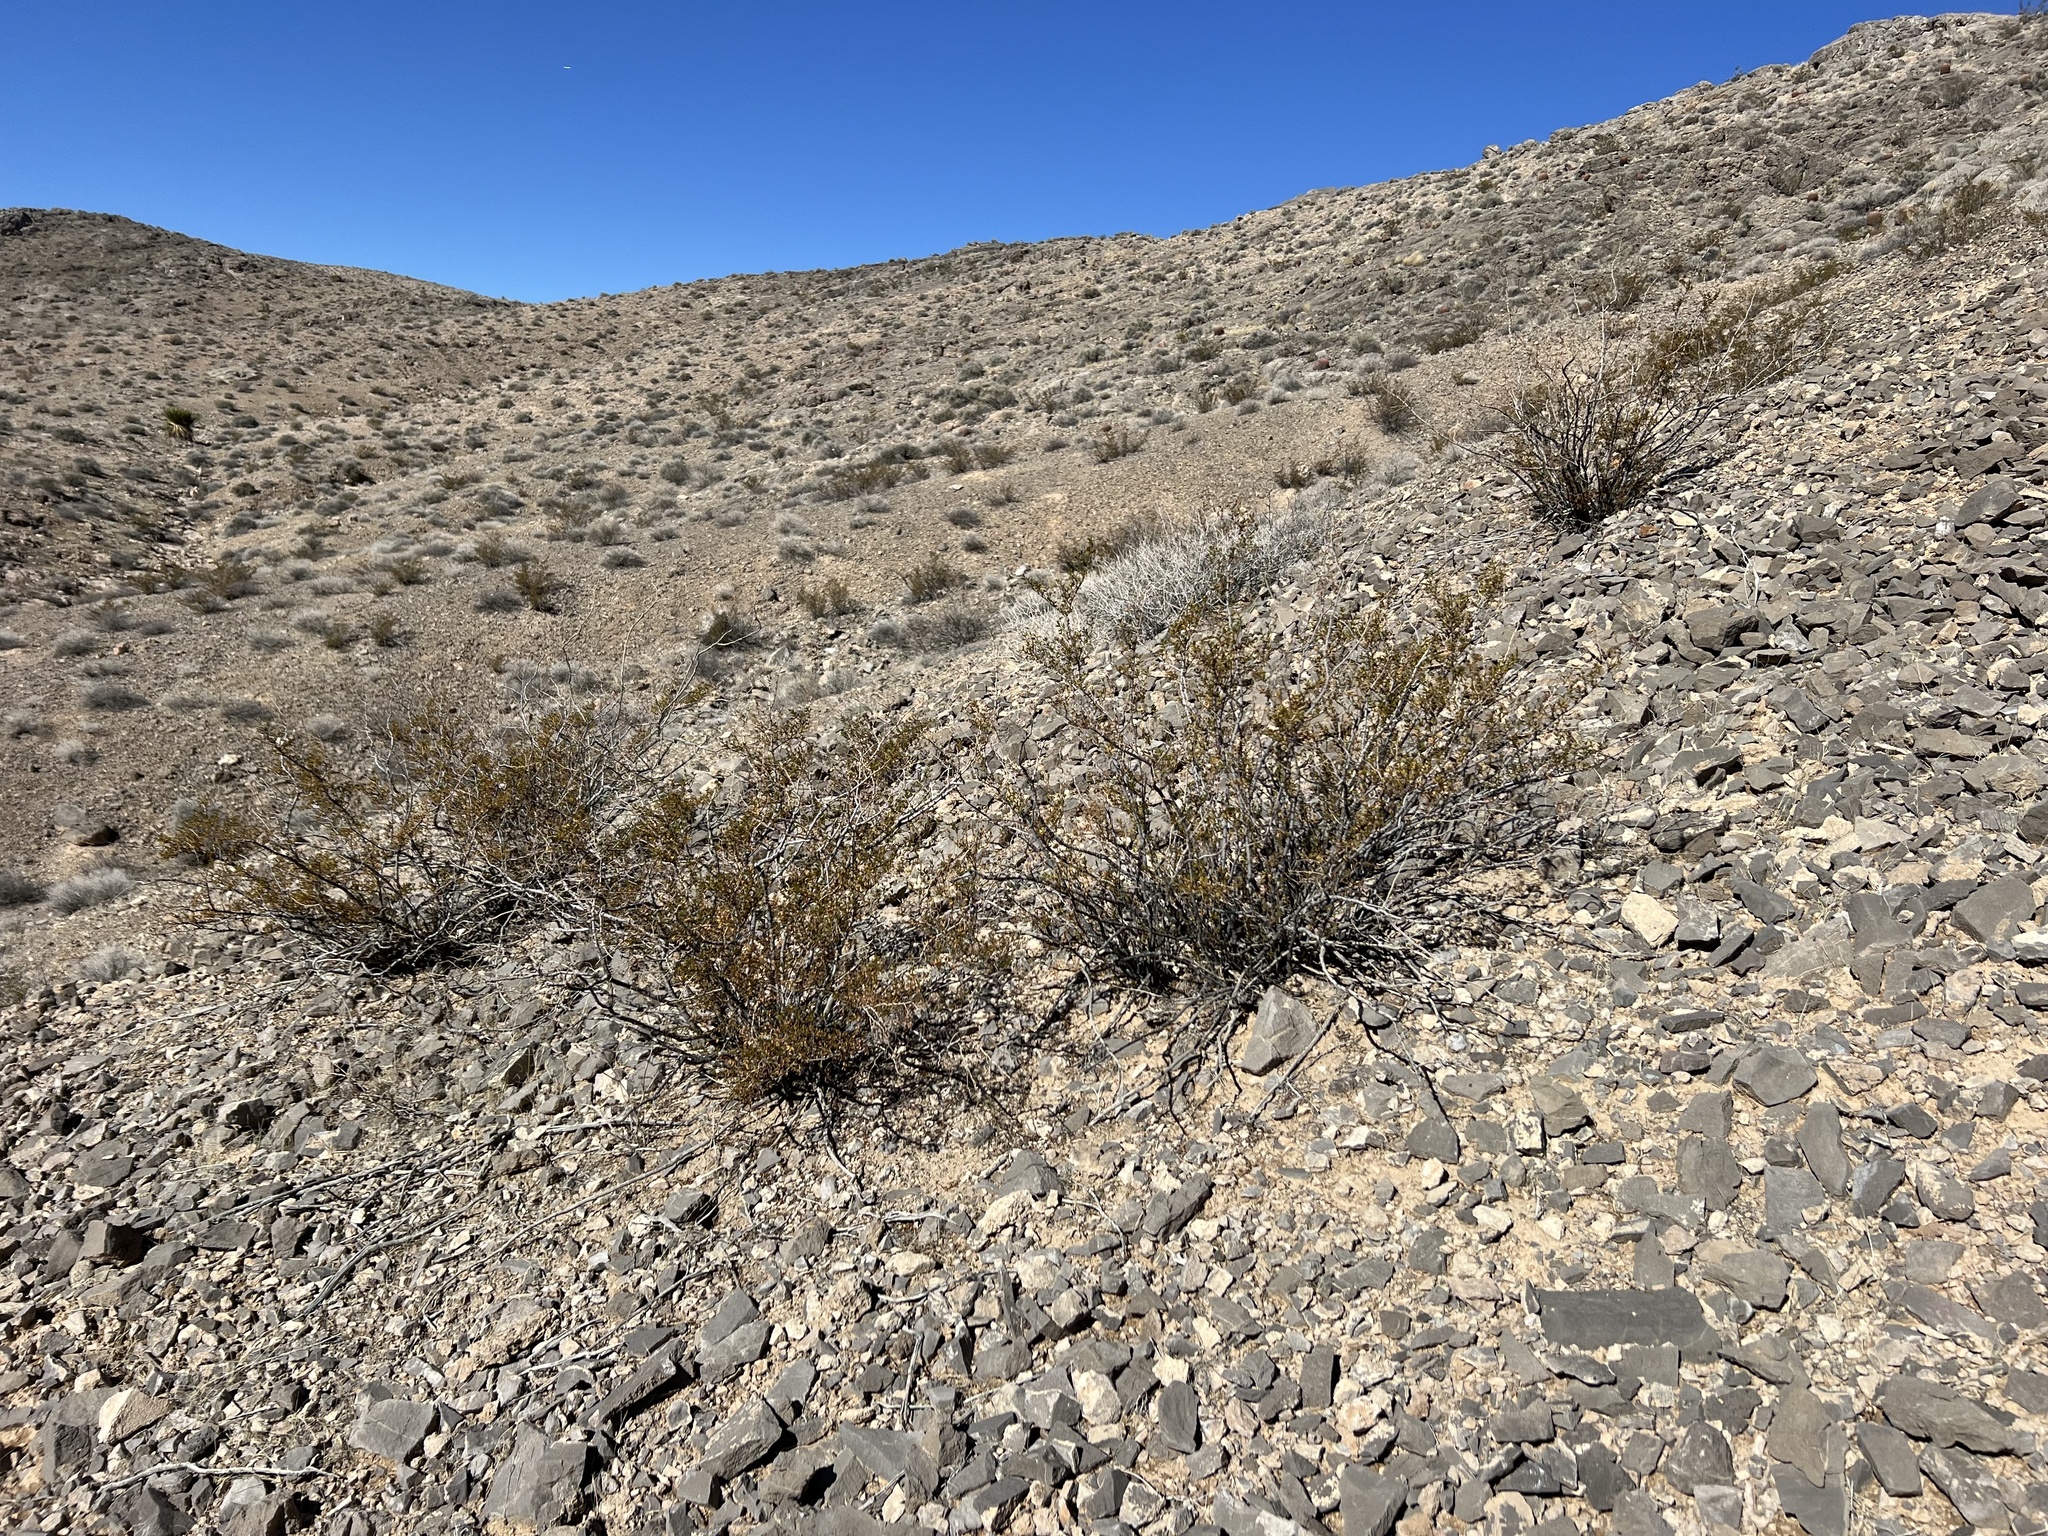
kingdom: Plantae
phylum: Tracheophyta
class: Magnoliopsida
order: Zygophyllales
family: Zygophyllaceae
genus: Larrea
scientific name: Larrea tridentata
